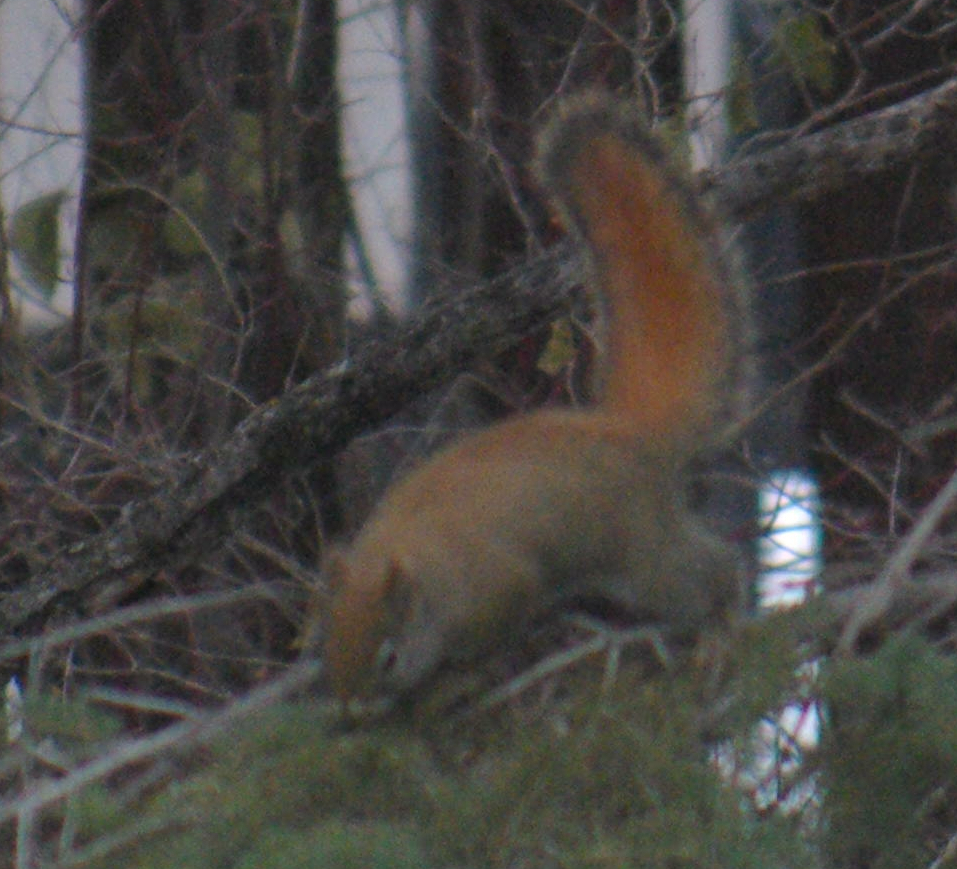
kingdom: Animalia
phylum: Chordata
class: Mammalia
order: Rodentia
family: Sciuridae
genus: Tamiasciurus
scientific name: Tamiasciurus hudsonicus
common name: Red squirrel
